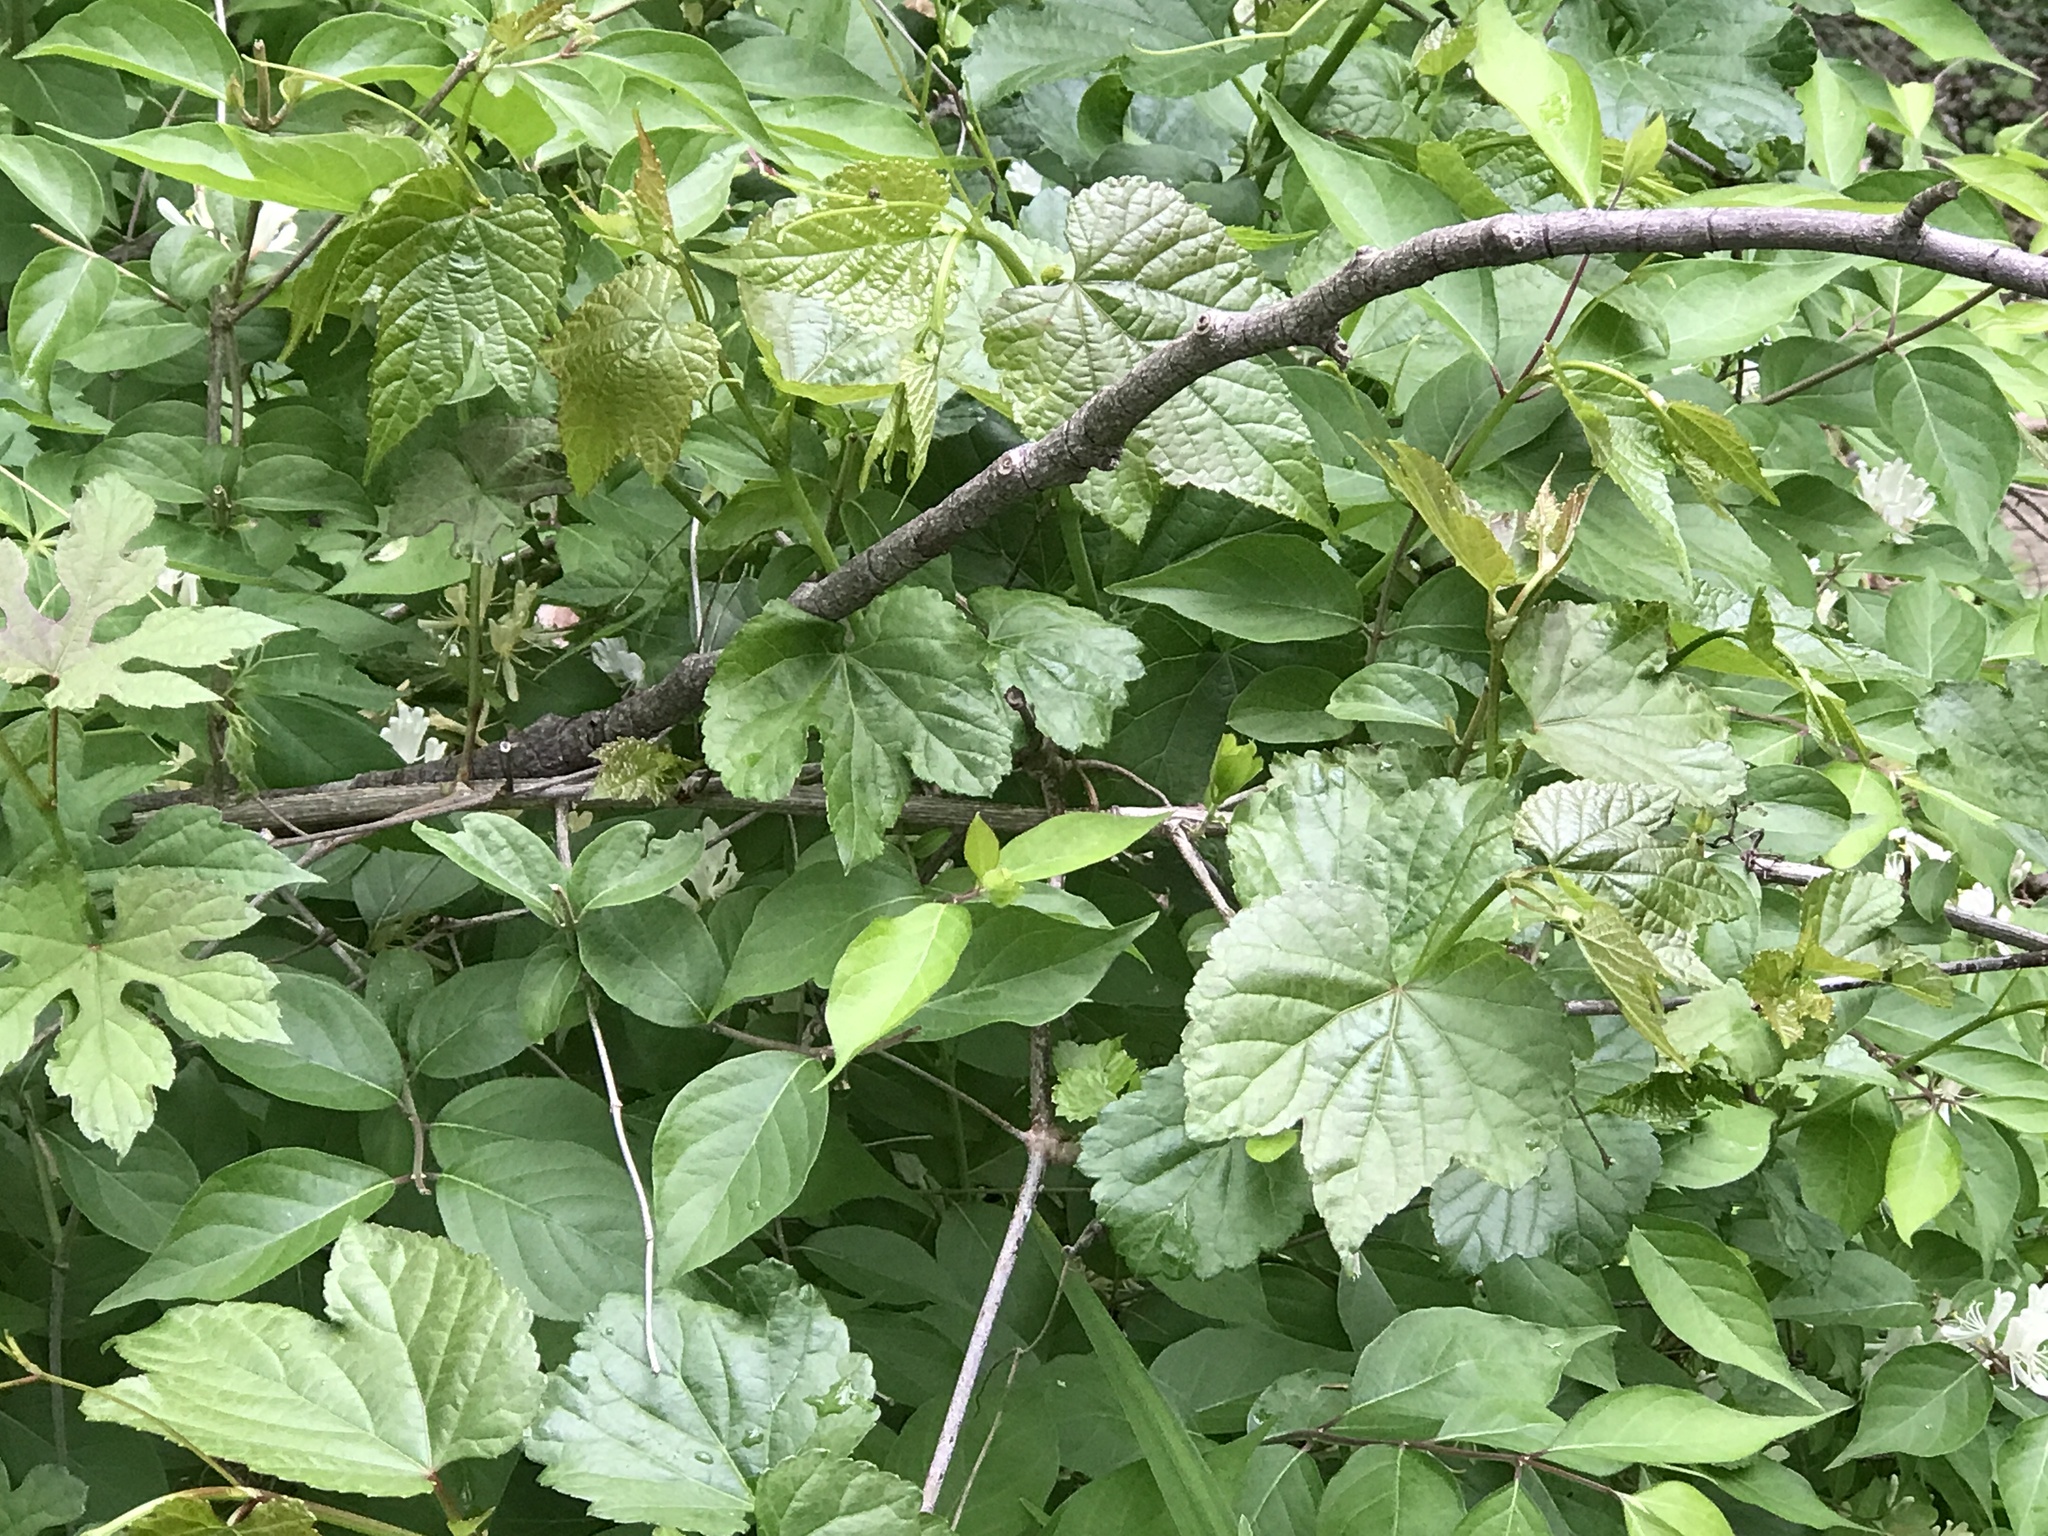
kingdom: Plantae
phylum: Tracheophyta
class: Magnoliopsida
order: Vitales
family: Vitaceae
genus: Ampelopsis
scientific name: Ampelopsis glandulosa
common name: Amur peppervine
